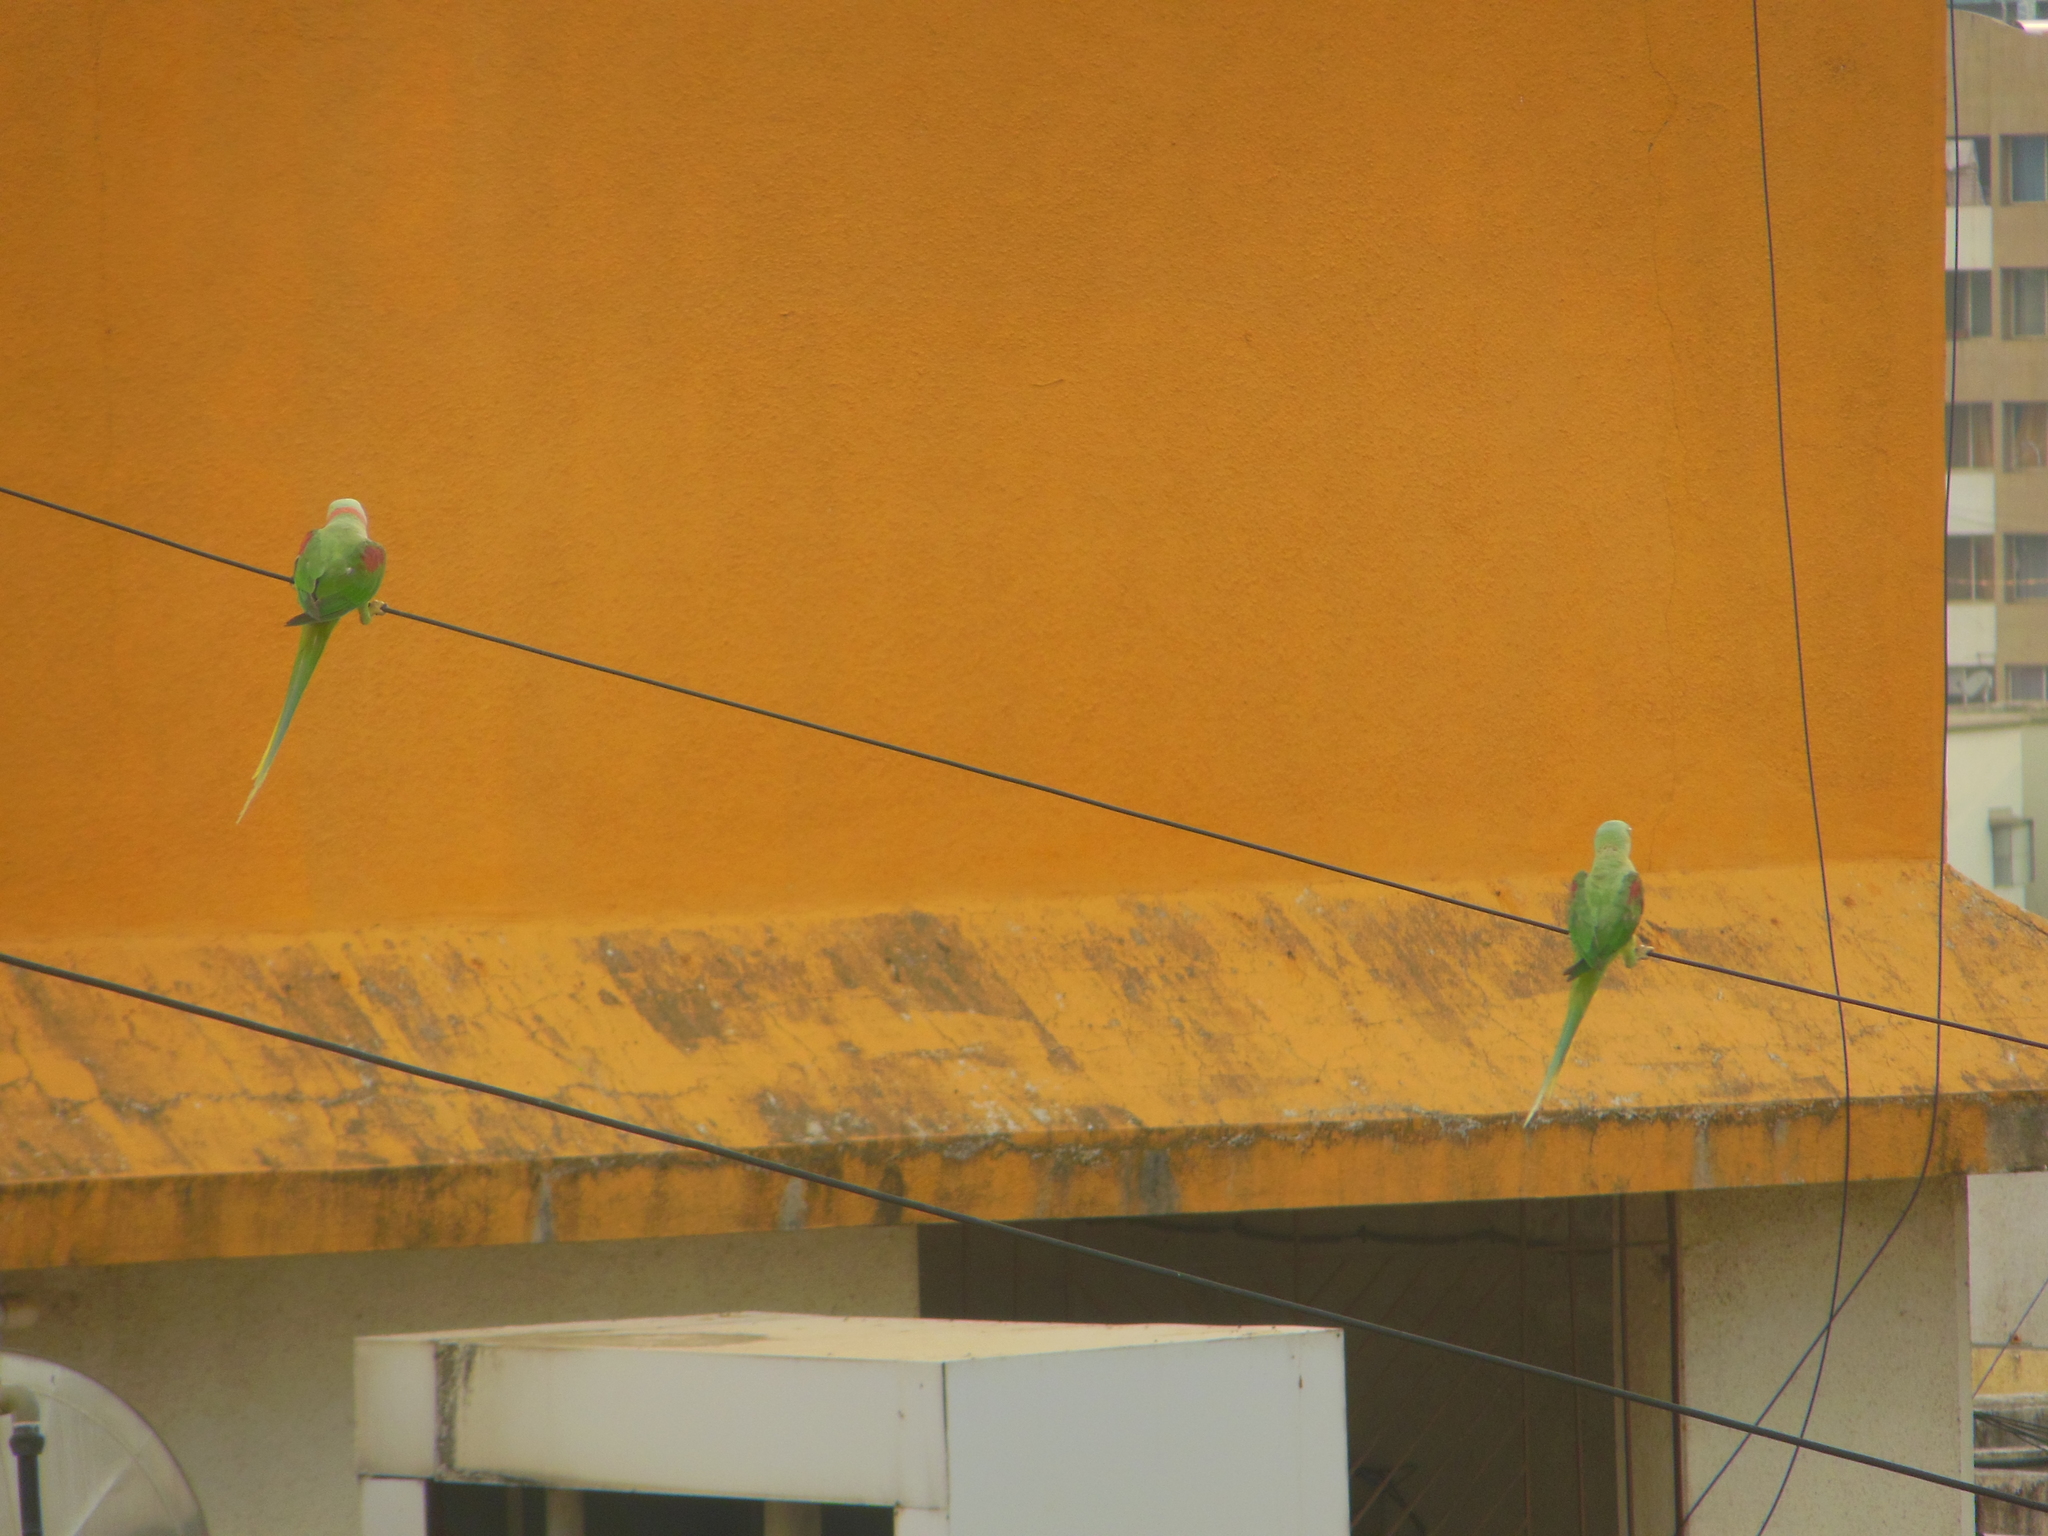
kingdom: Animalia
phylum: Chordata
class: Aves
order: Psittaciformes
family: Psittacidae
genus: Psittacula
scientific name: Psittacula eupatria
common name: Alexandrine parakeet
